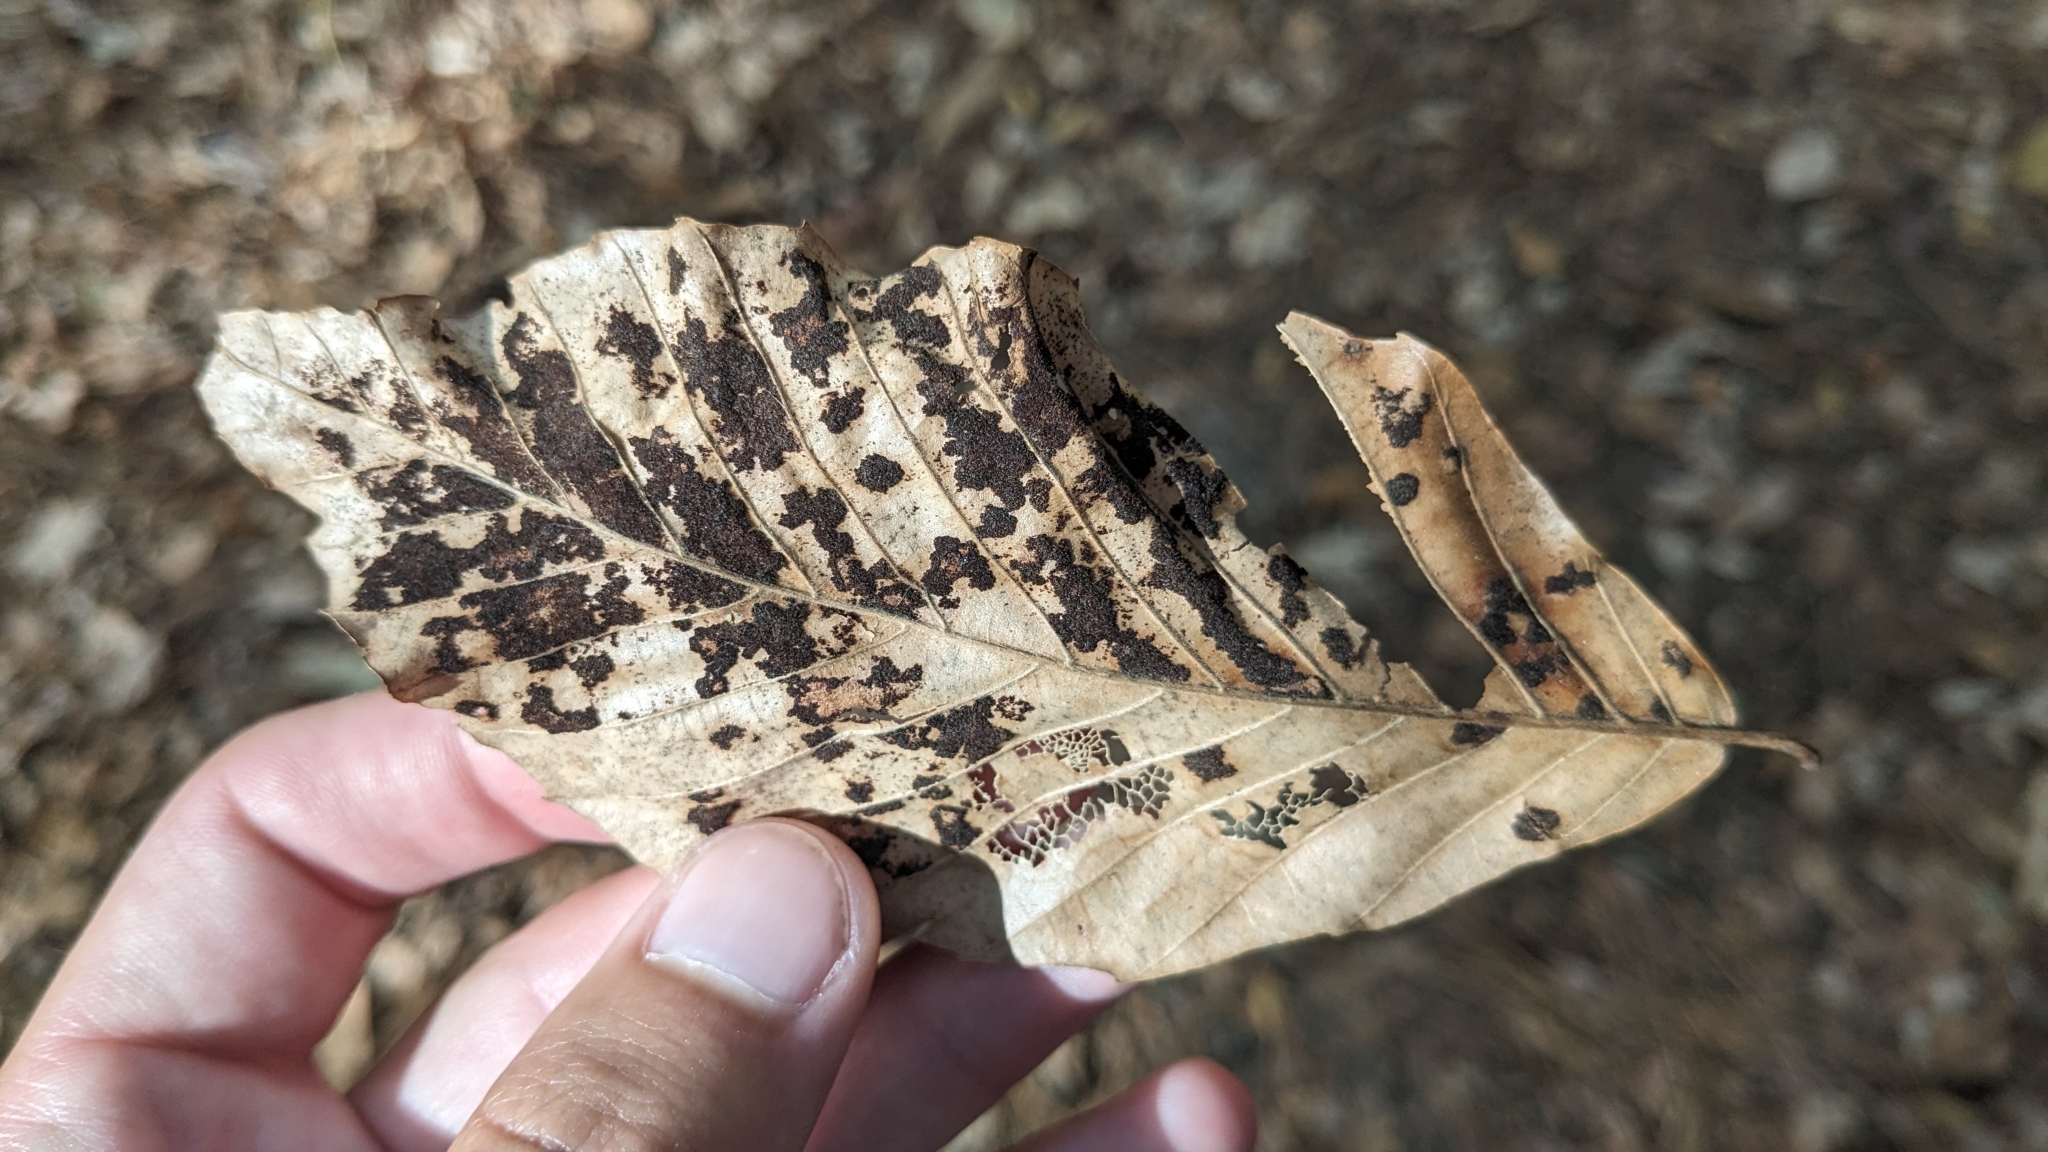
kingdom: Animalia
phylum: Arthropoda
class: Arachnida
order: Trombidiformes
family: Eriophyidae
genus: Acalitus
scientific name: Acalitus
